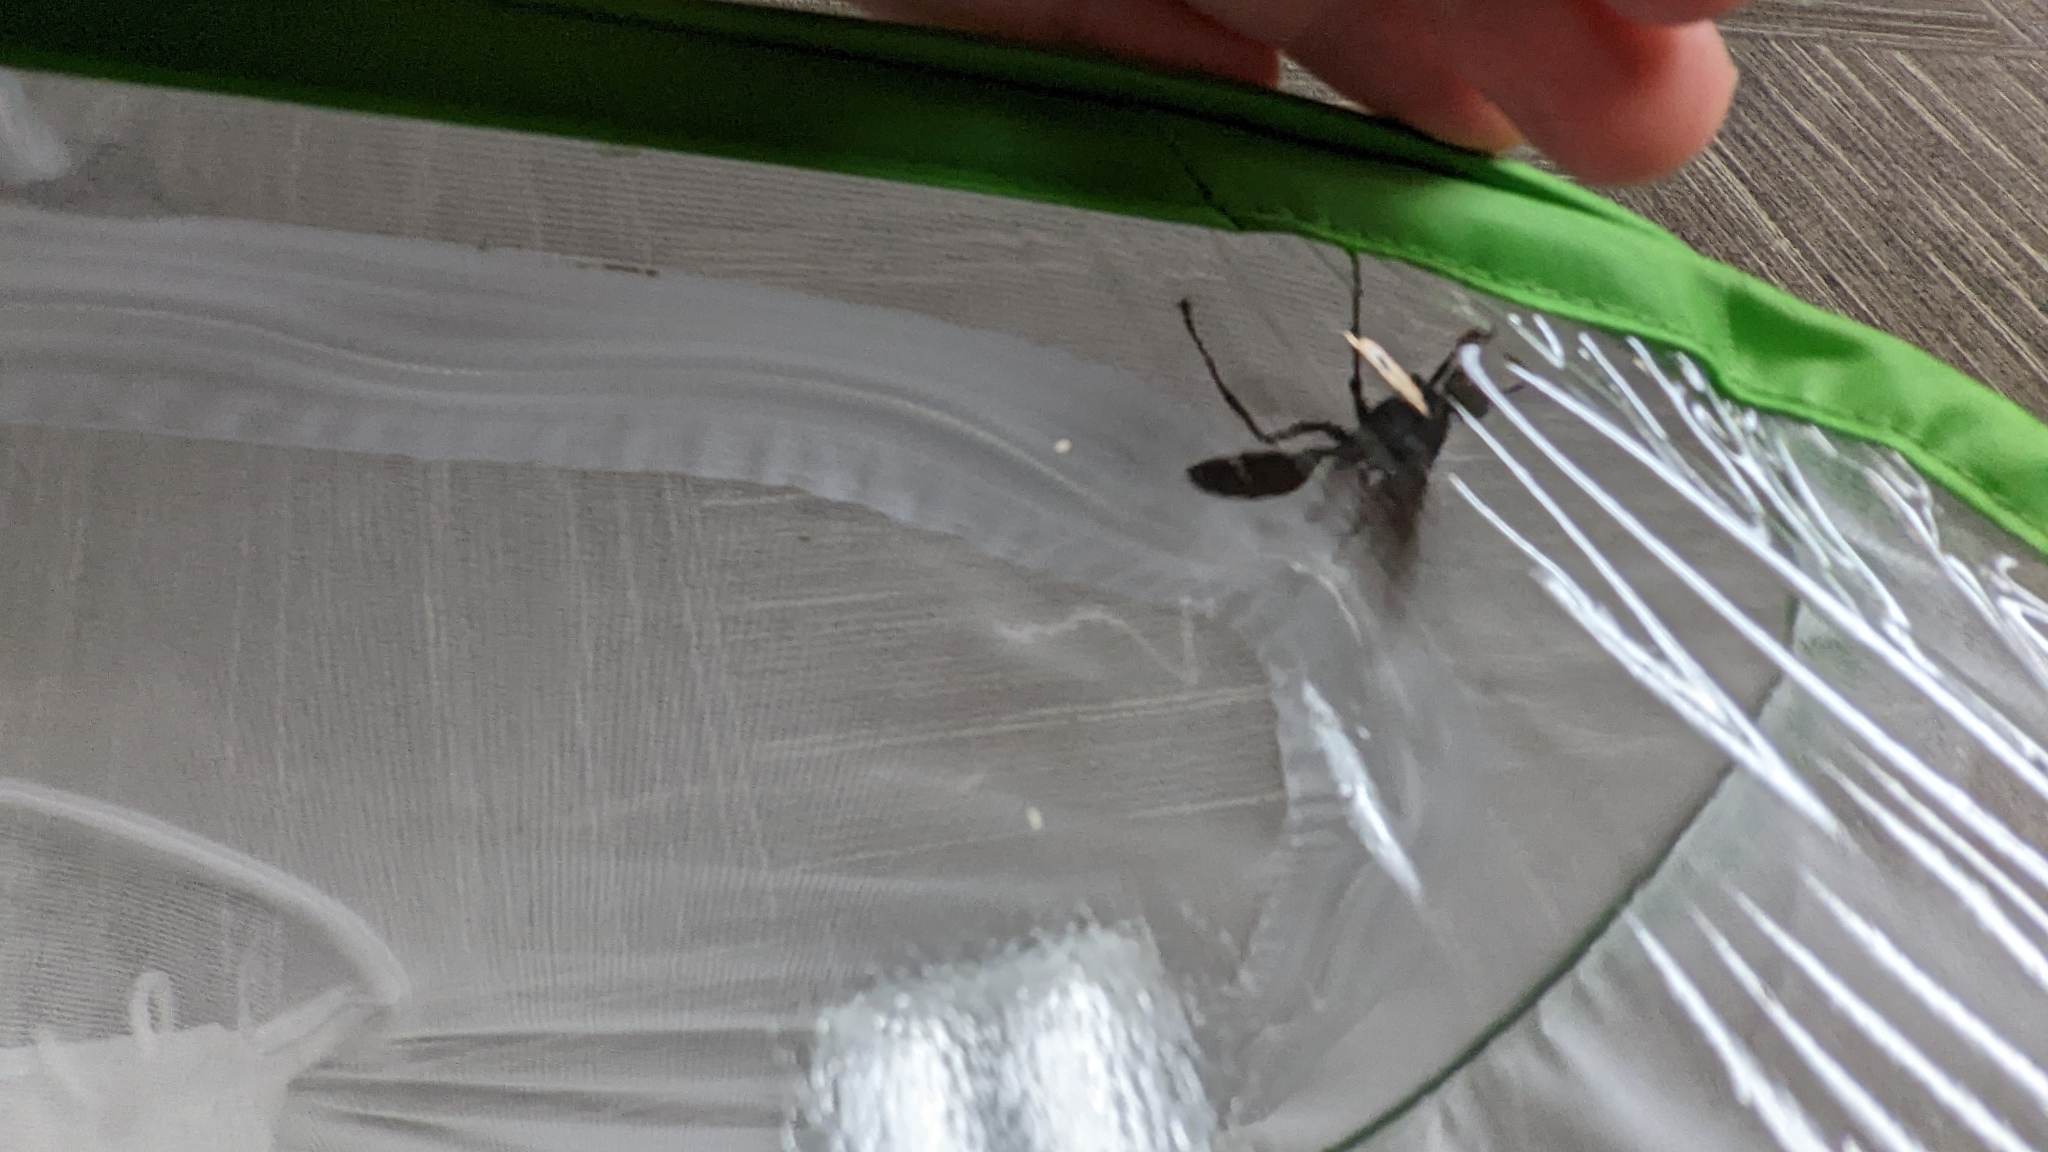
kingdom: Animalia
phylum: Arthropoda
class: Insecta
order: Hymenoptera
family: Sphecidae
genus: Sphex
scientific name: Sphex pensylvanicus
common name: Great black digger wasp
